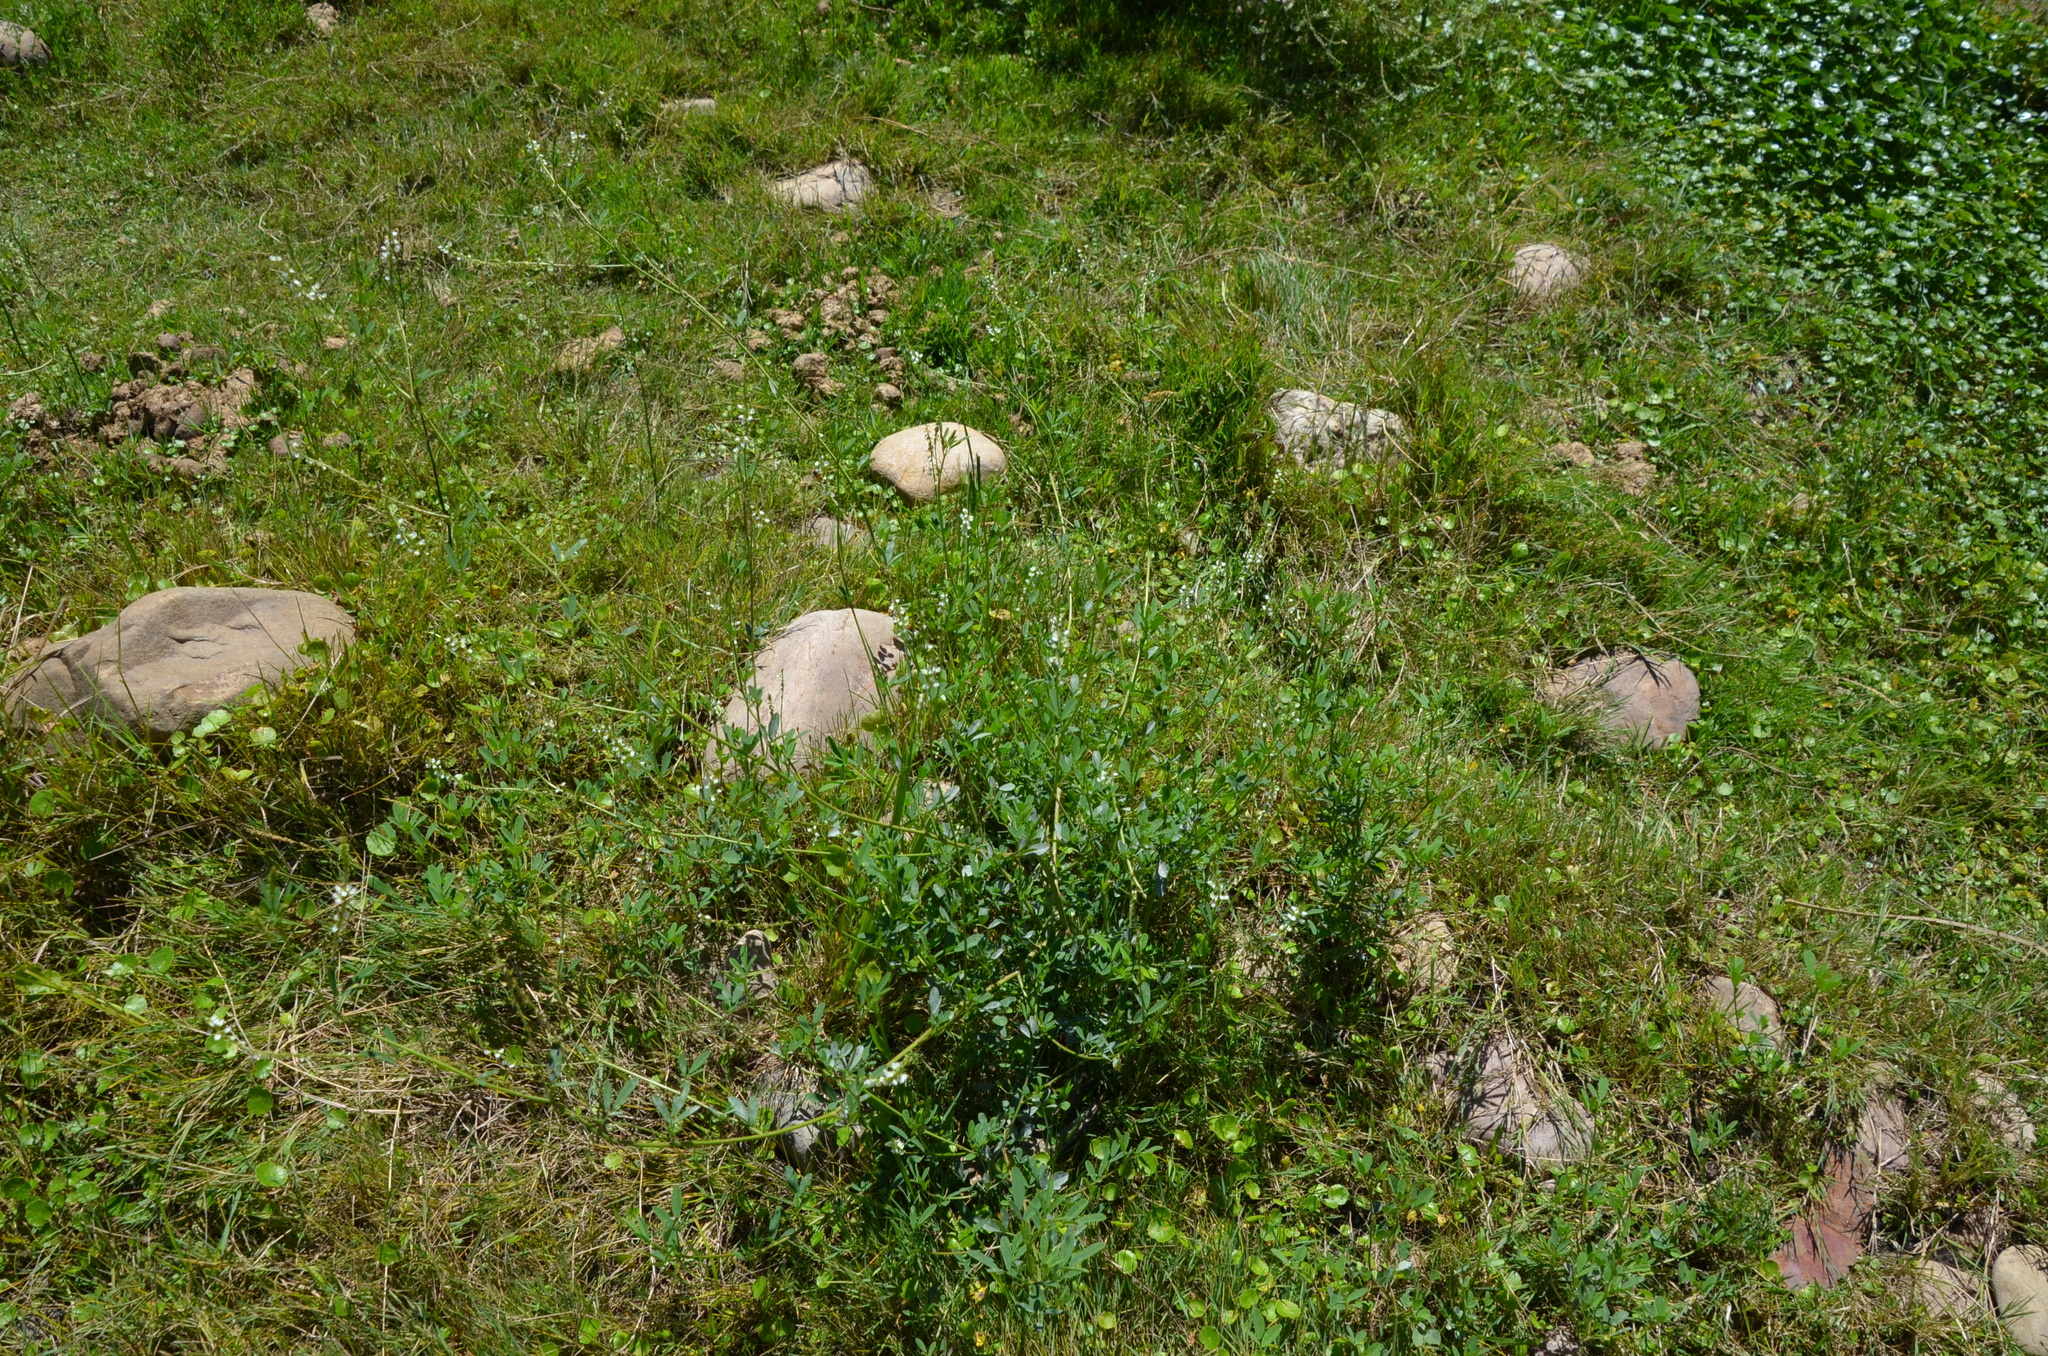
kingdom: Plantae
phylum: Tracheophyta
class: Magnoliopsida
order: Fabales
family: Fabaceae
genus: Melilotus
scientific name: Melilotus albus
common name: White melilot
